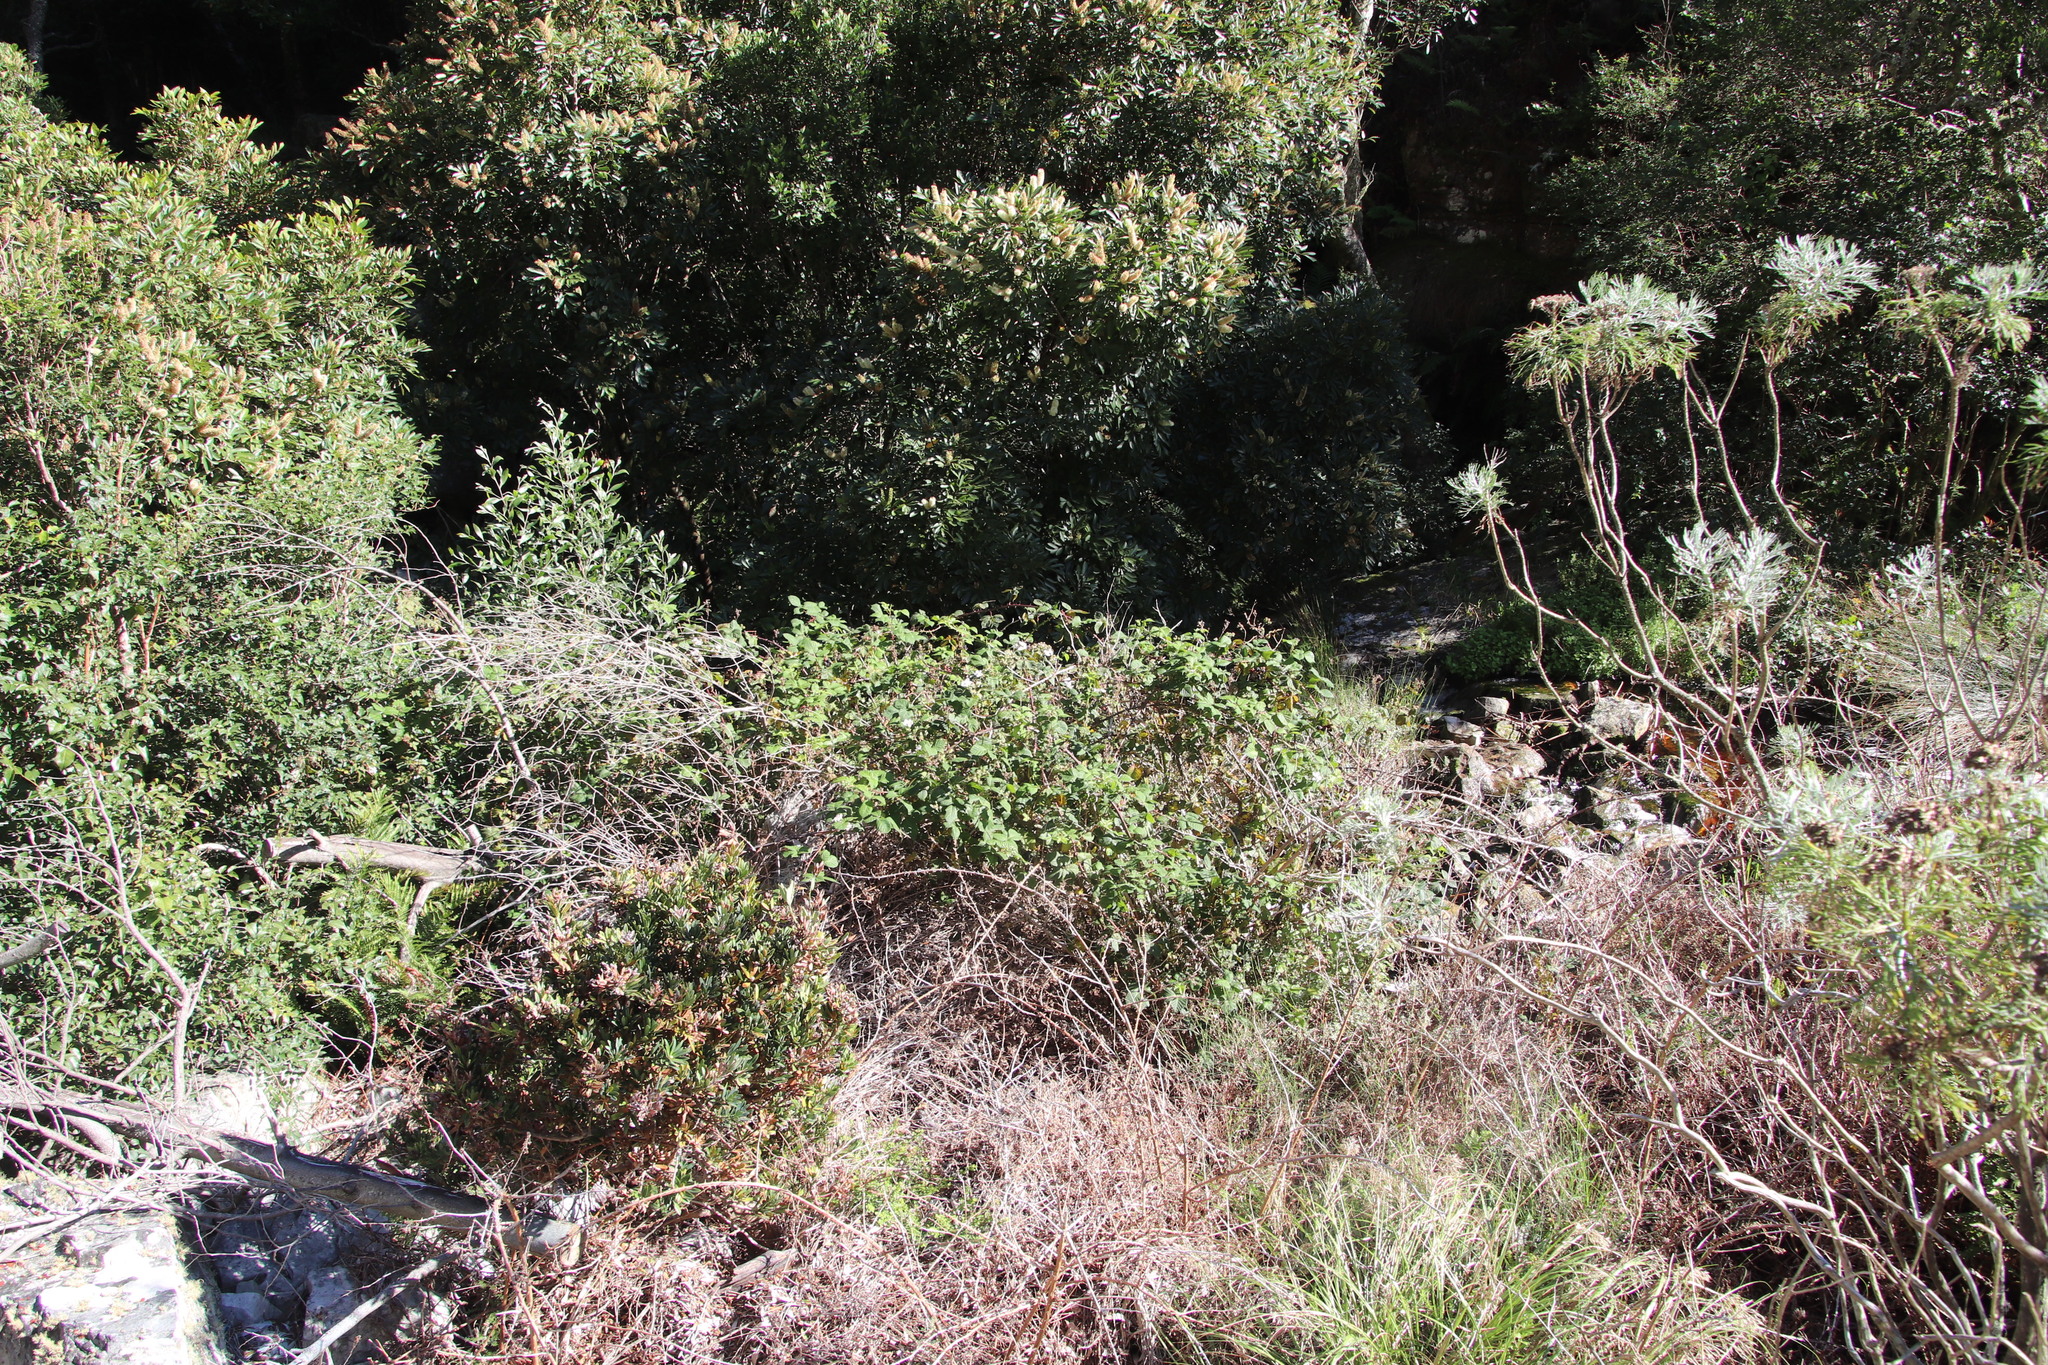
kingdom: Plantae
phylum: Tracheophyta
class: Magnoliopsida
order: Rosales
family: Rosaceae
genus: Rubus
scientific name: Rubus pinnatus
